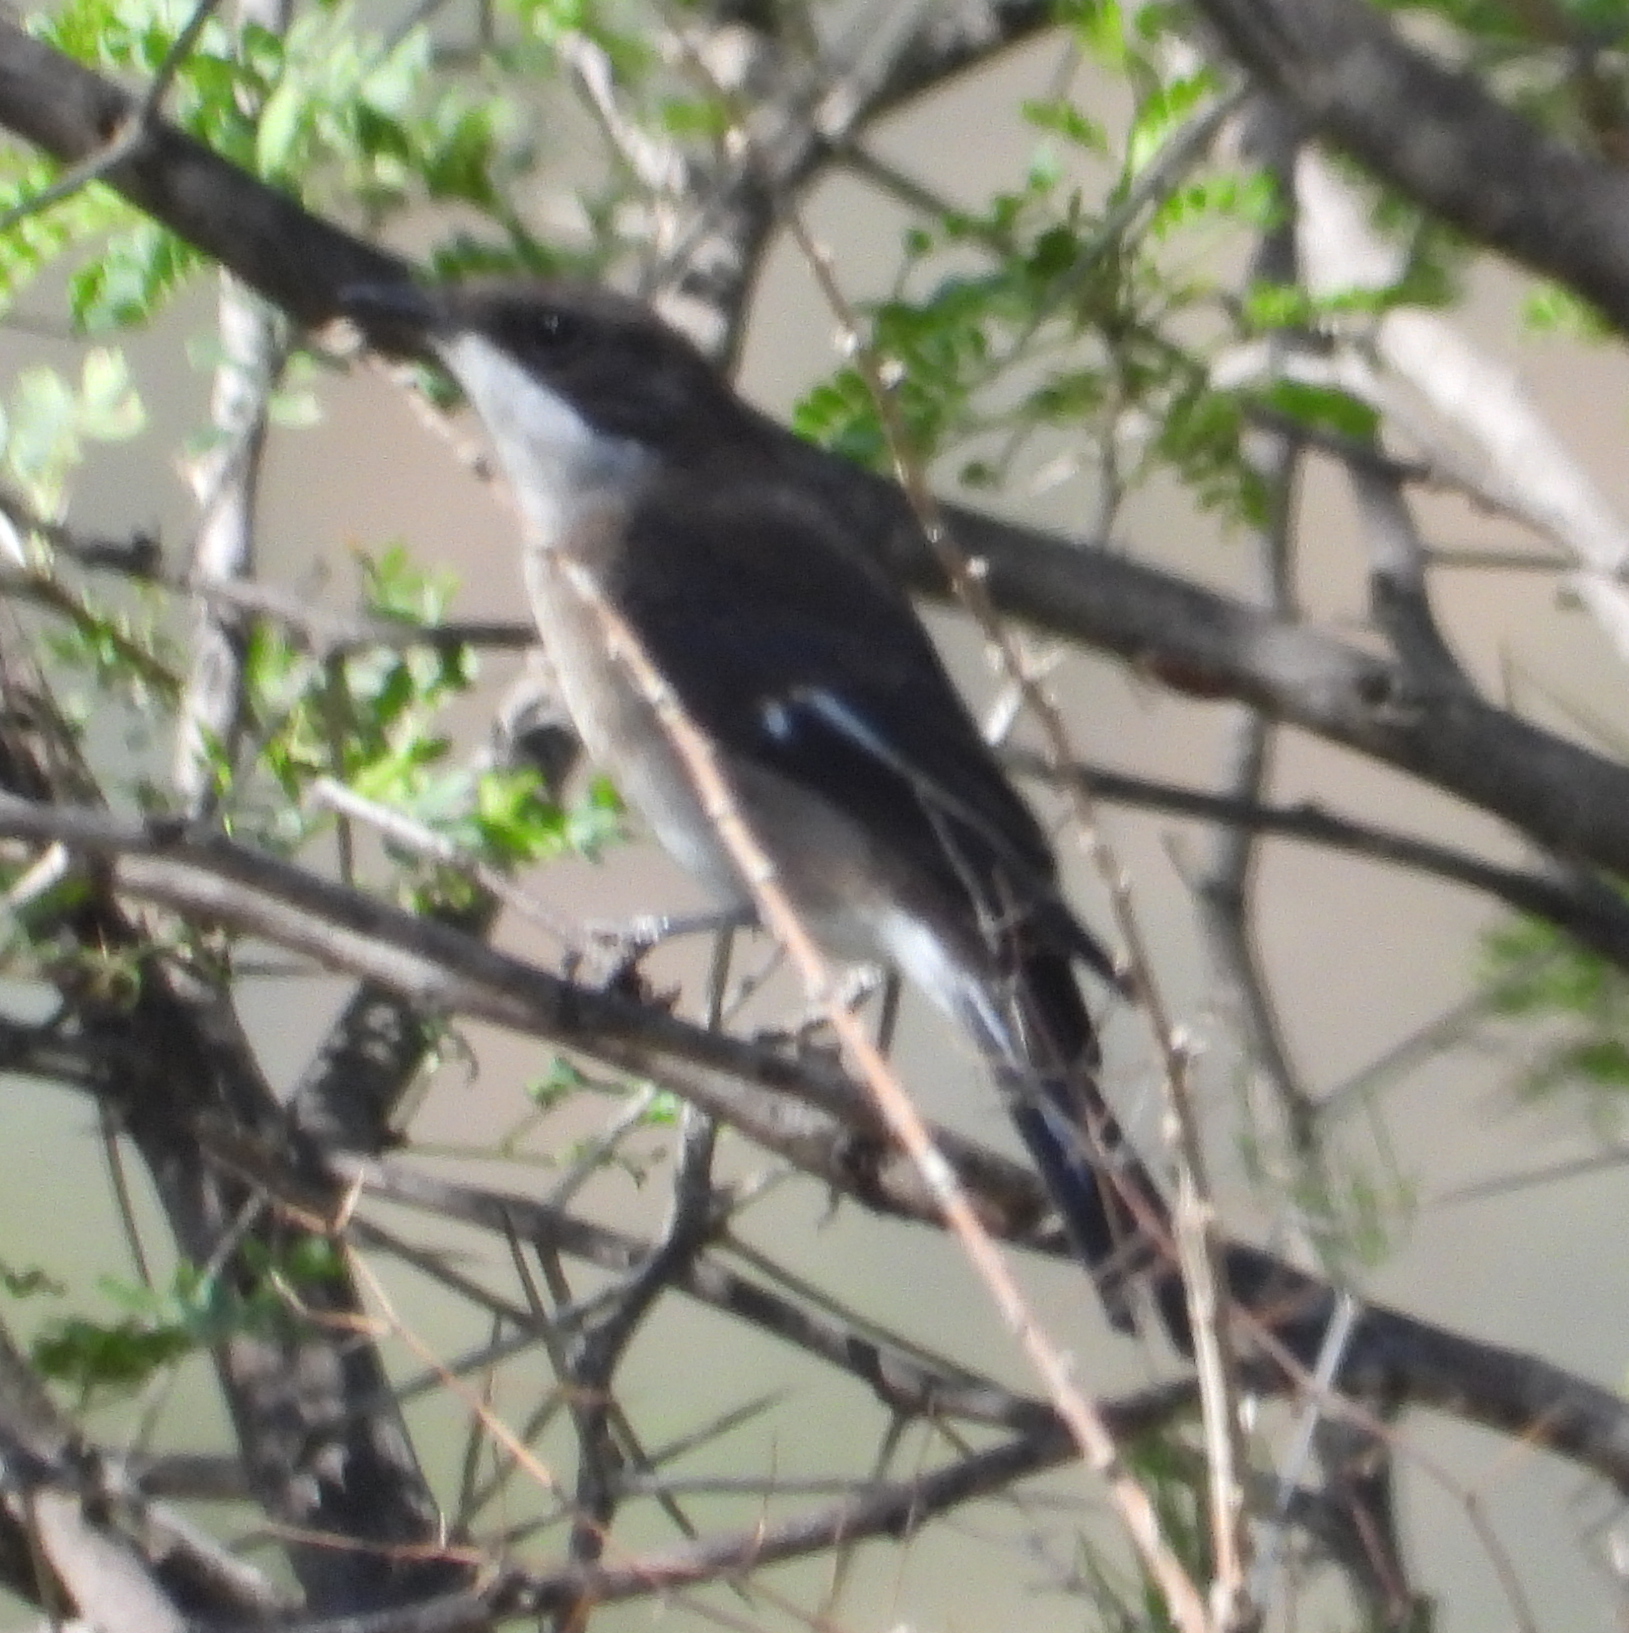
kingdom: Animalia
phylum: Chordata
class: Aves
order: Passeriformes
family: Muscicapidae
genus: Sigelus
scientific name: Sigelus silens
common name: Fiscal flycatcher
